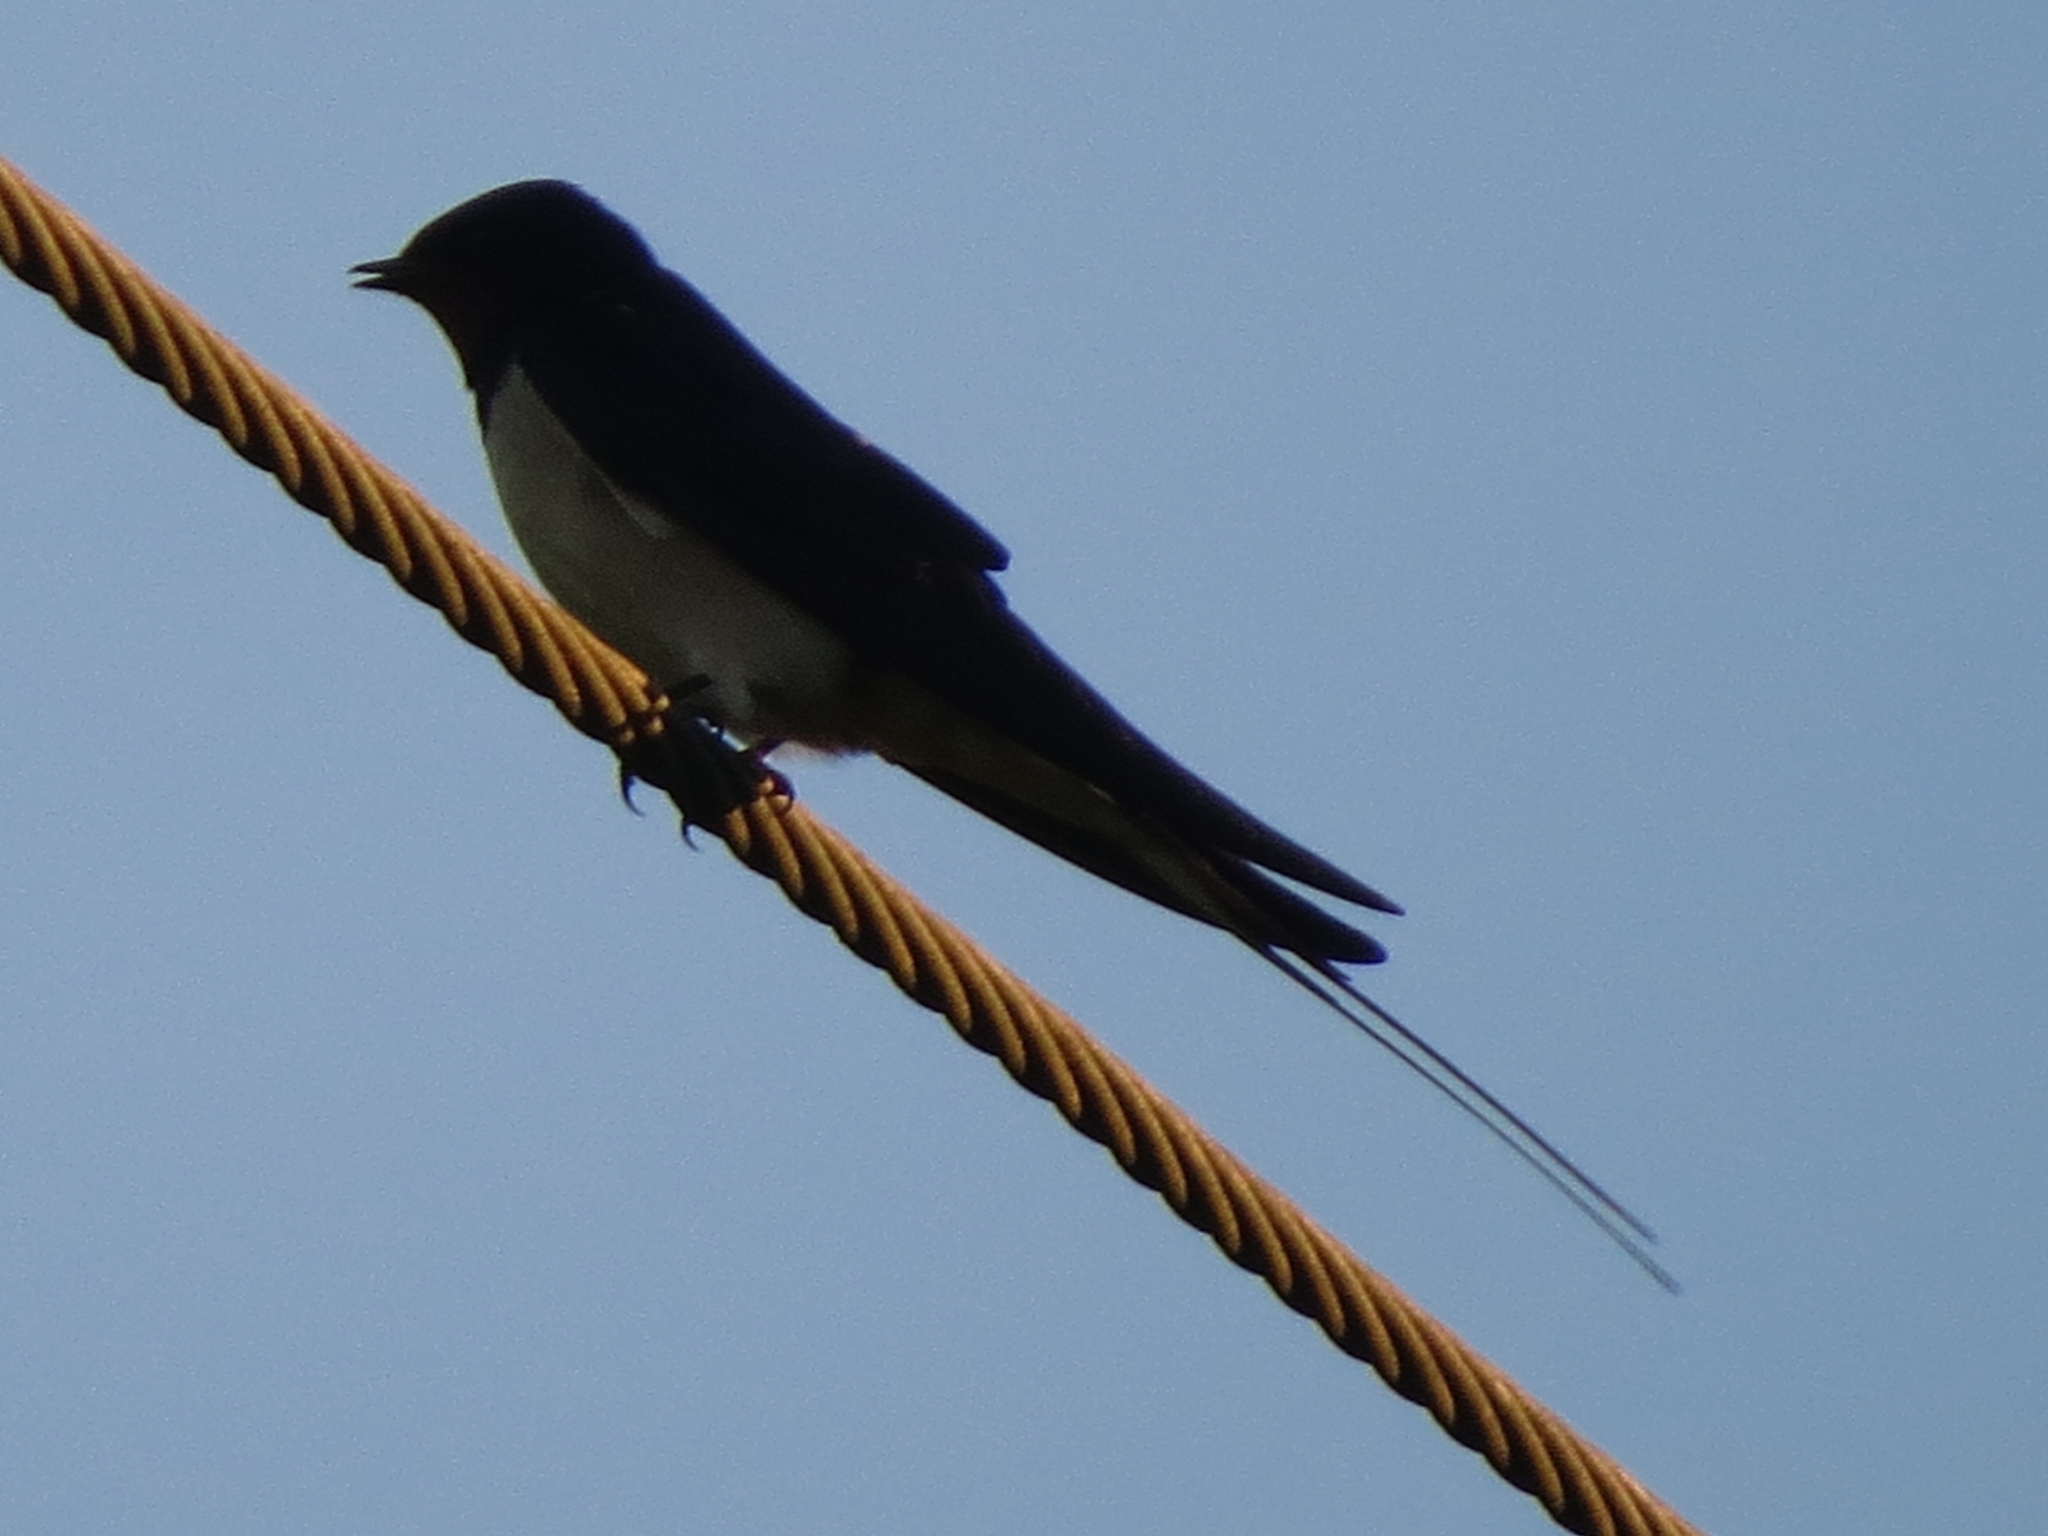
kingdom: Animalia
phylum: Chordata
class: Aves
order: Passeriformes
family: Hirundinidae
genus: Hirundo
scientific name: Hirundo rustica
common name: Barn swallow
